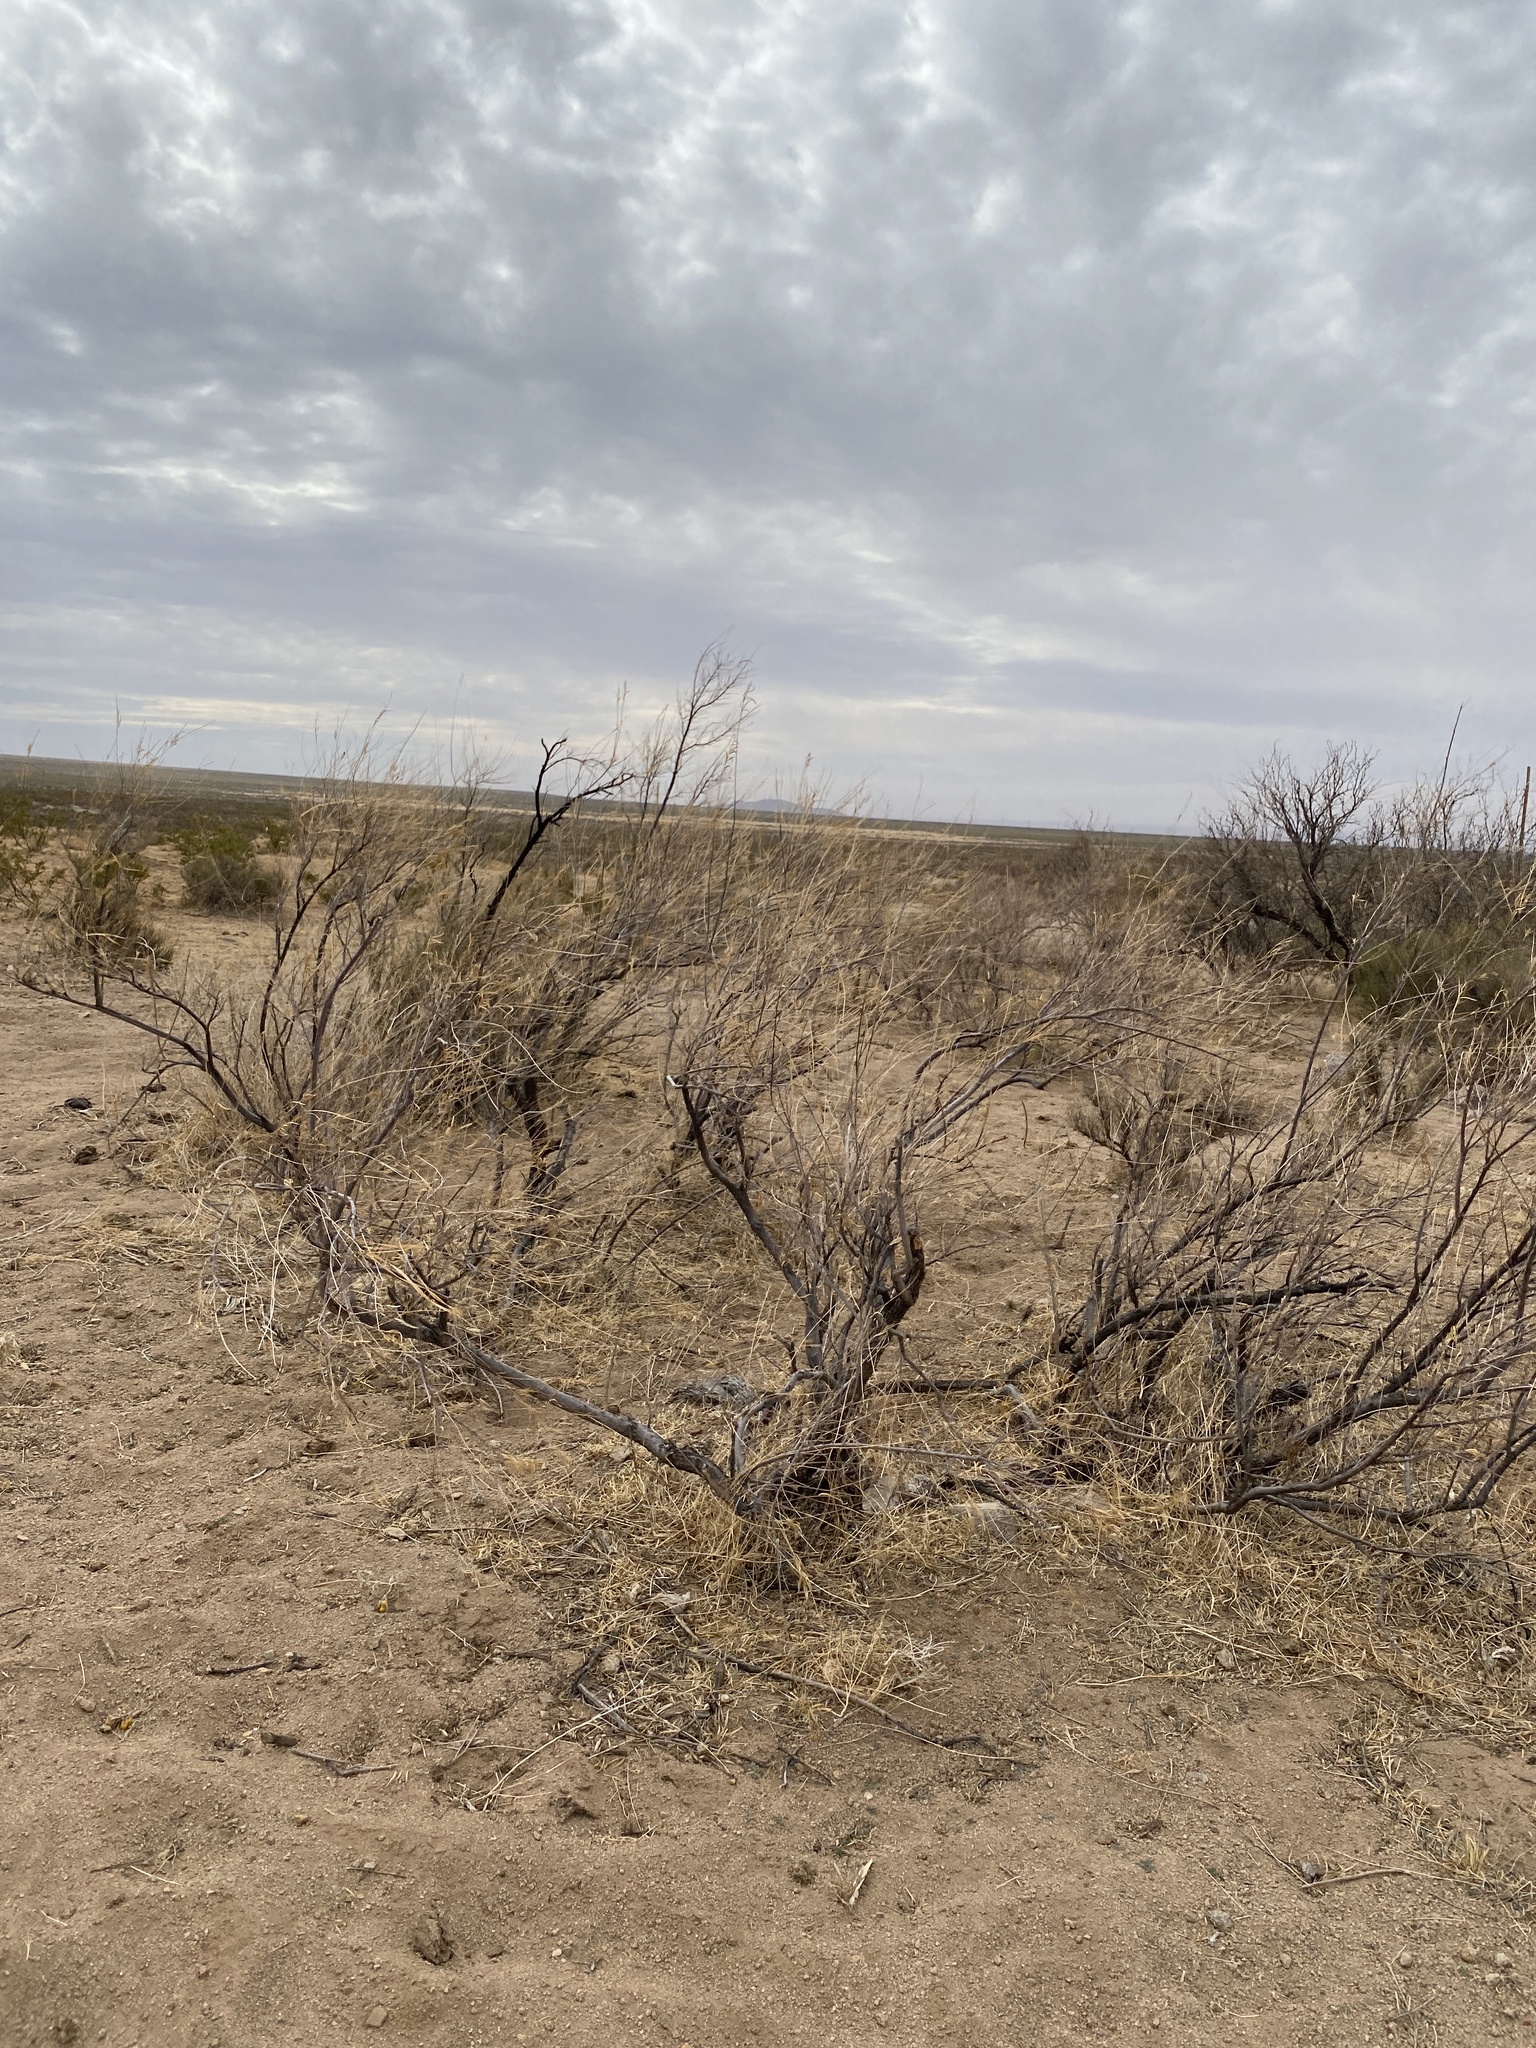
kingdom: Plantae
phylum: Tracheophyta
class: Magnoliopsida
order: Lamiales
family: Bignoniaceae
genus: Chilopsis
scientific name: Chilopsis linearis
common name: Desert-willow
